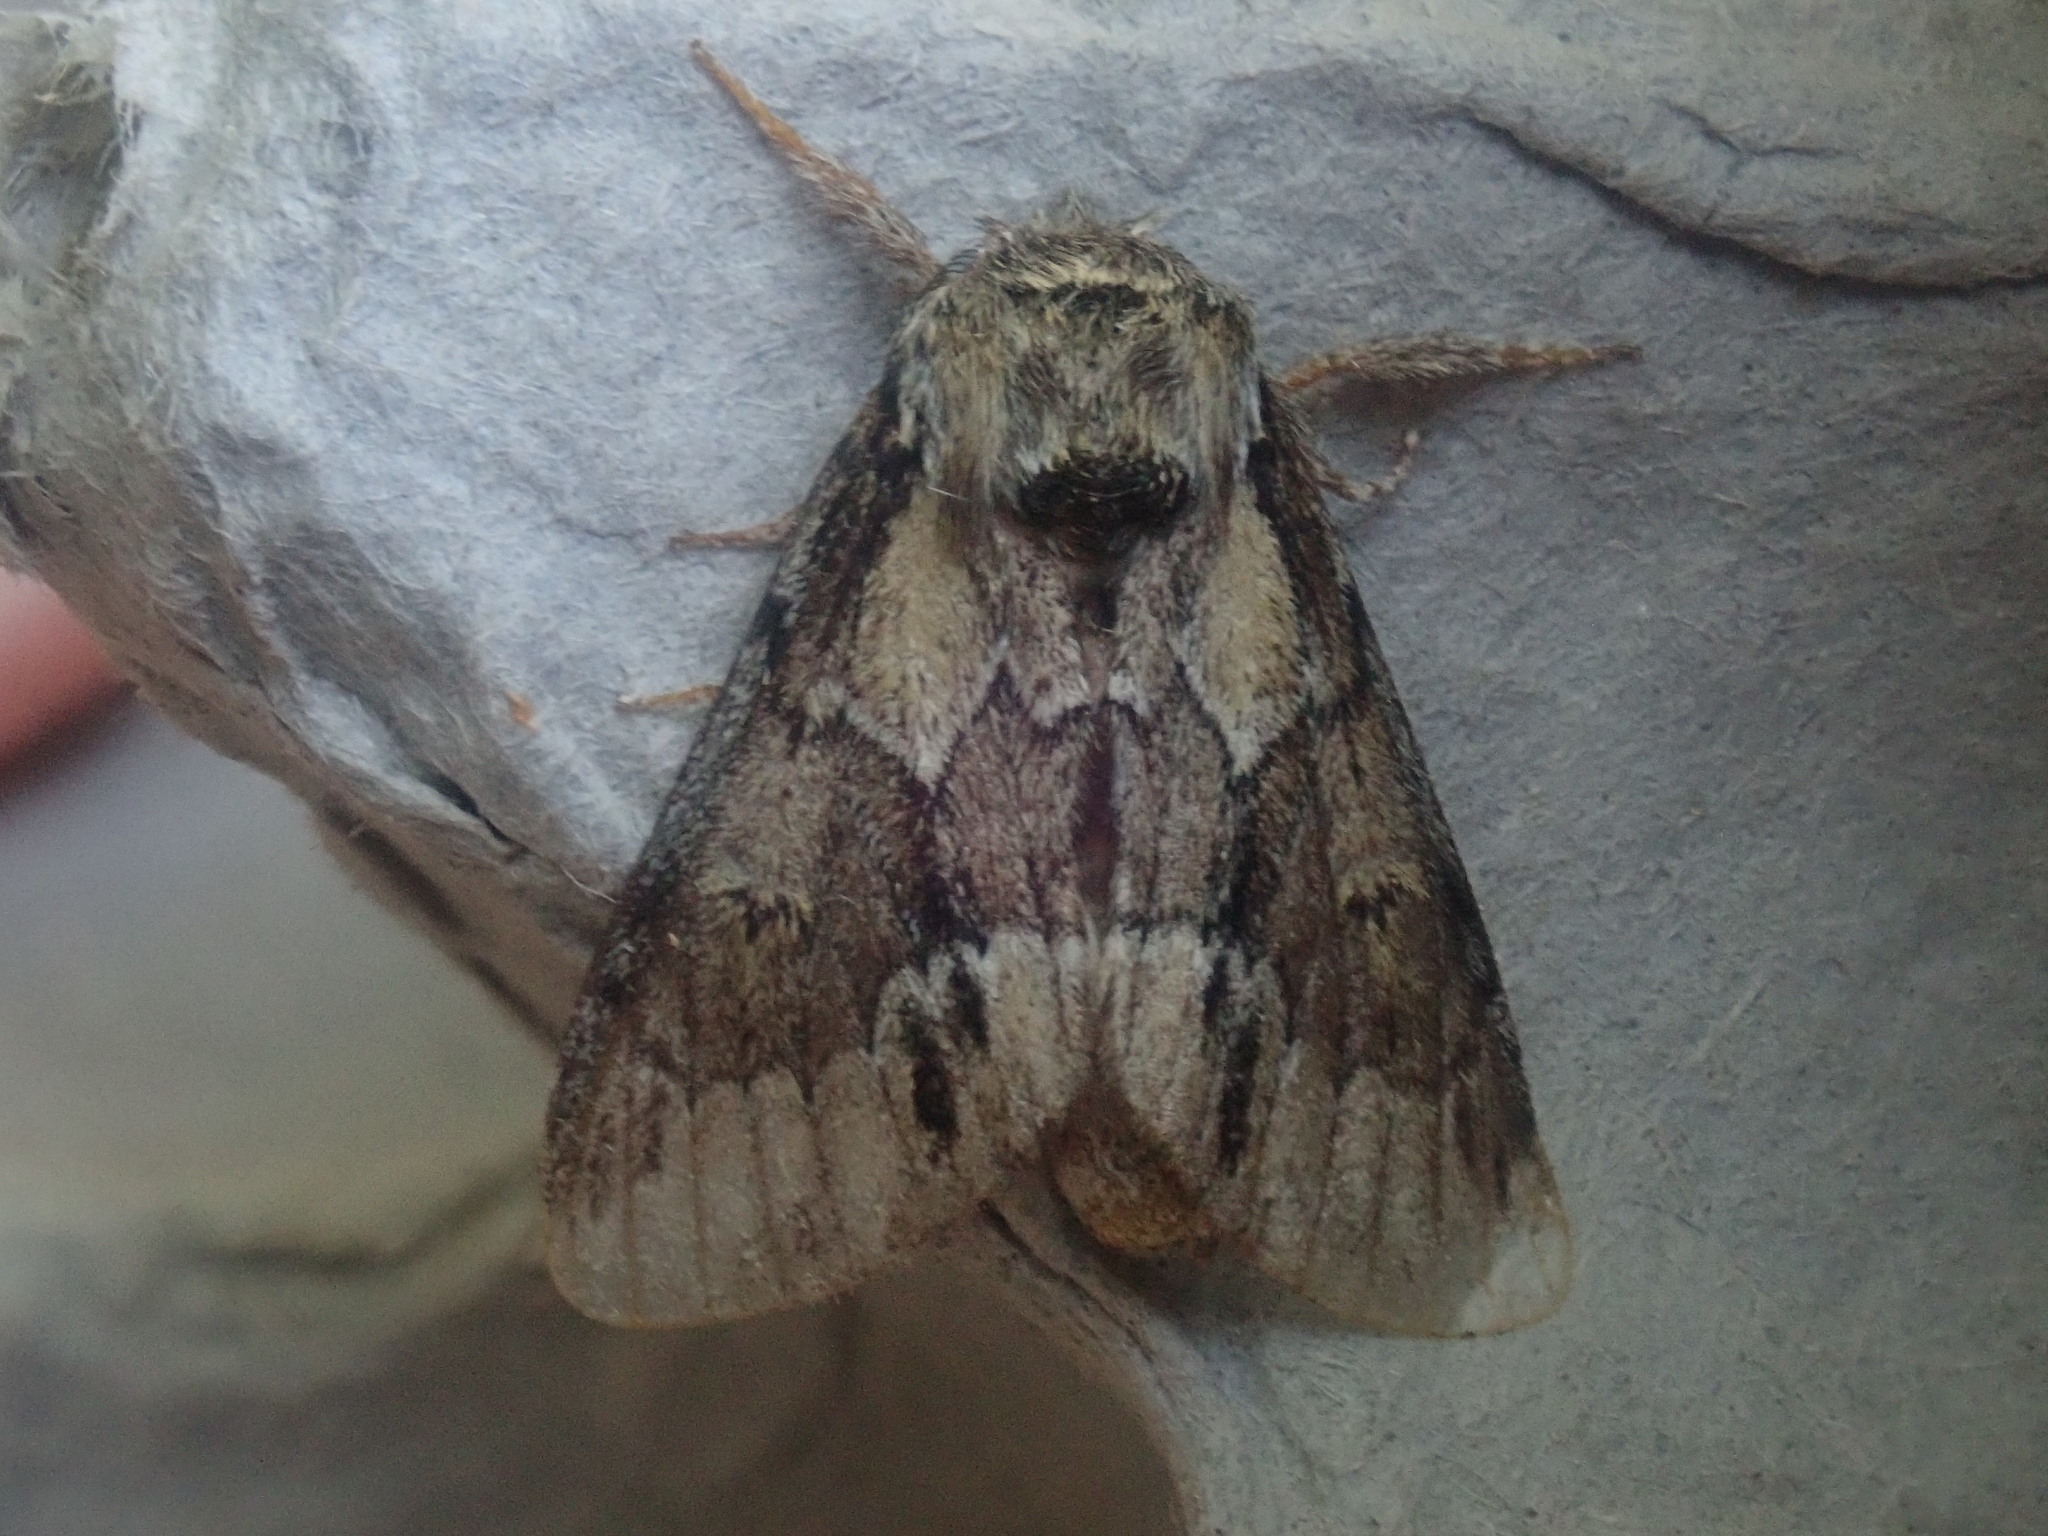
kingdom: Animalia
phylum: Arthropoda
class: Insecta
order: Lepidoptera
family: Notodontidae
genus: Paraeschra
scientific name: Paraeschra georgica
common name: Georgian prominent
